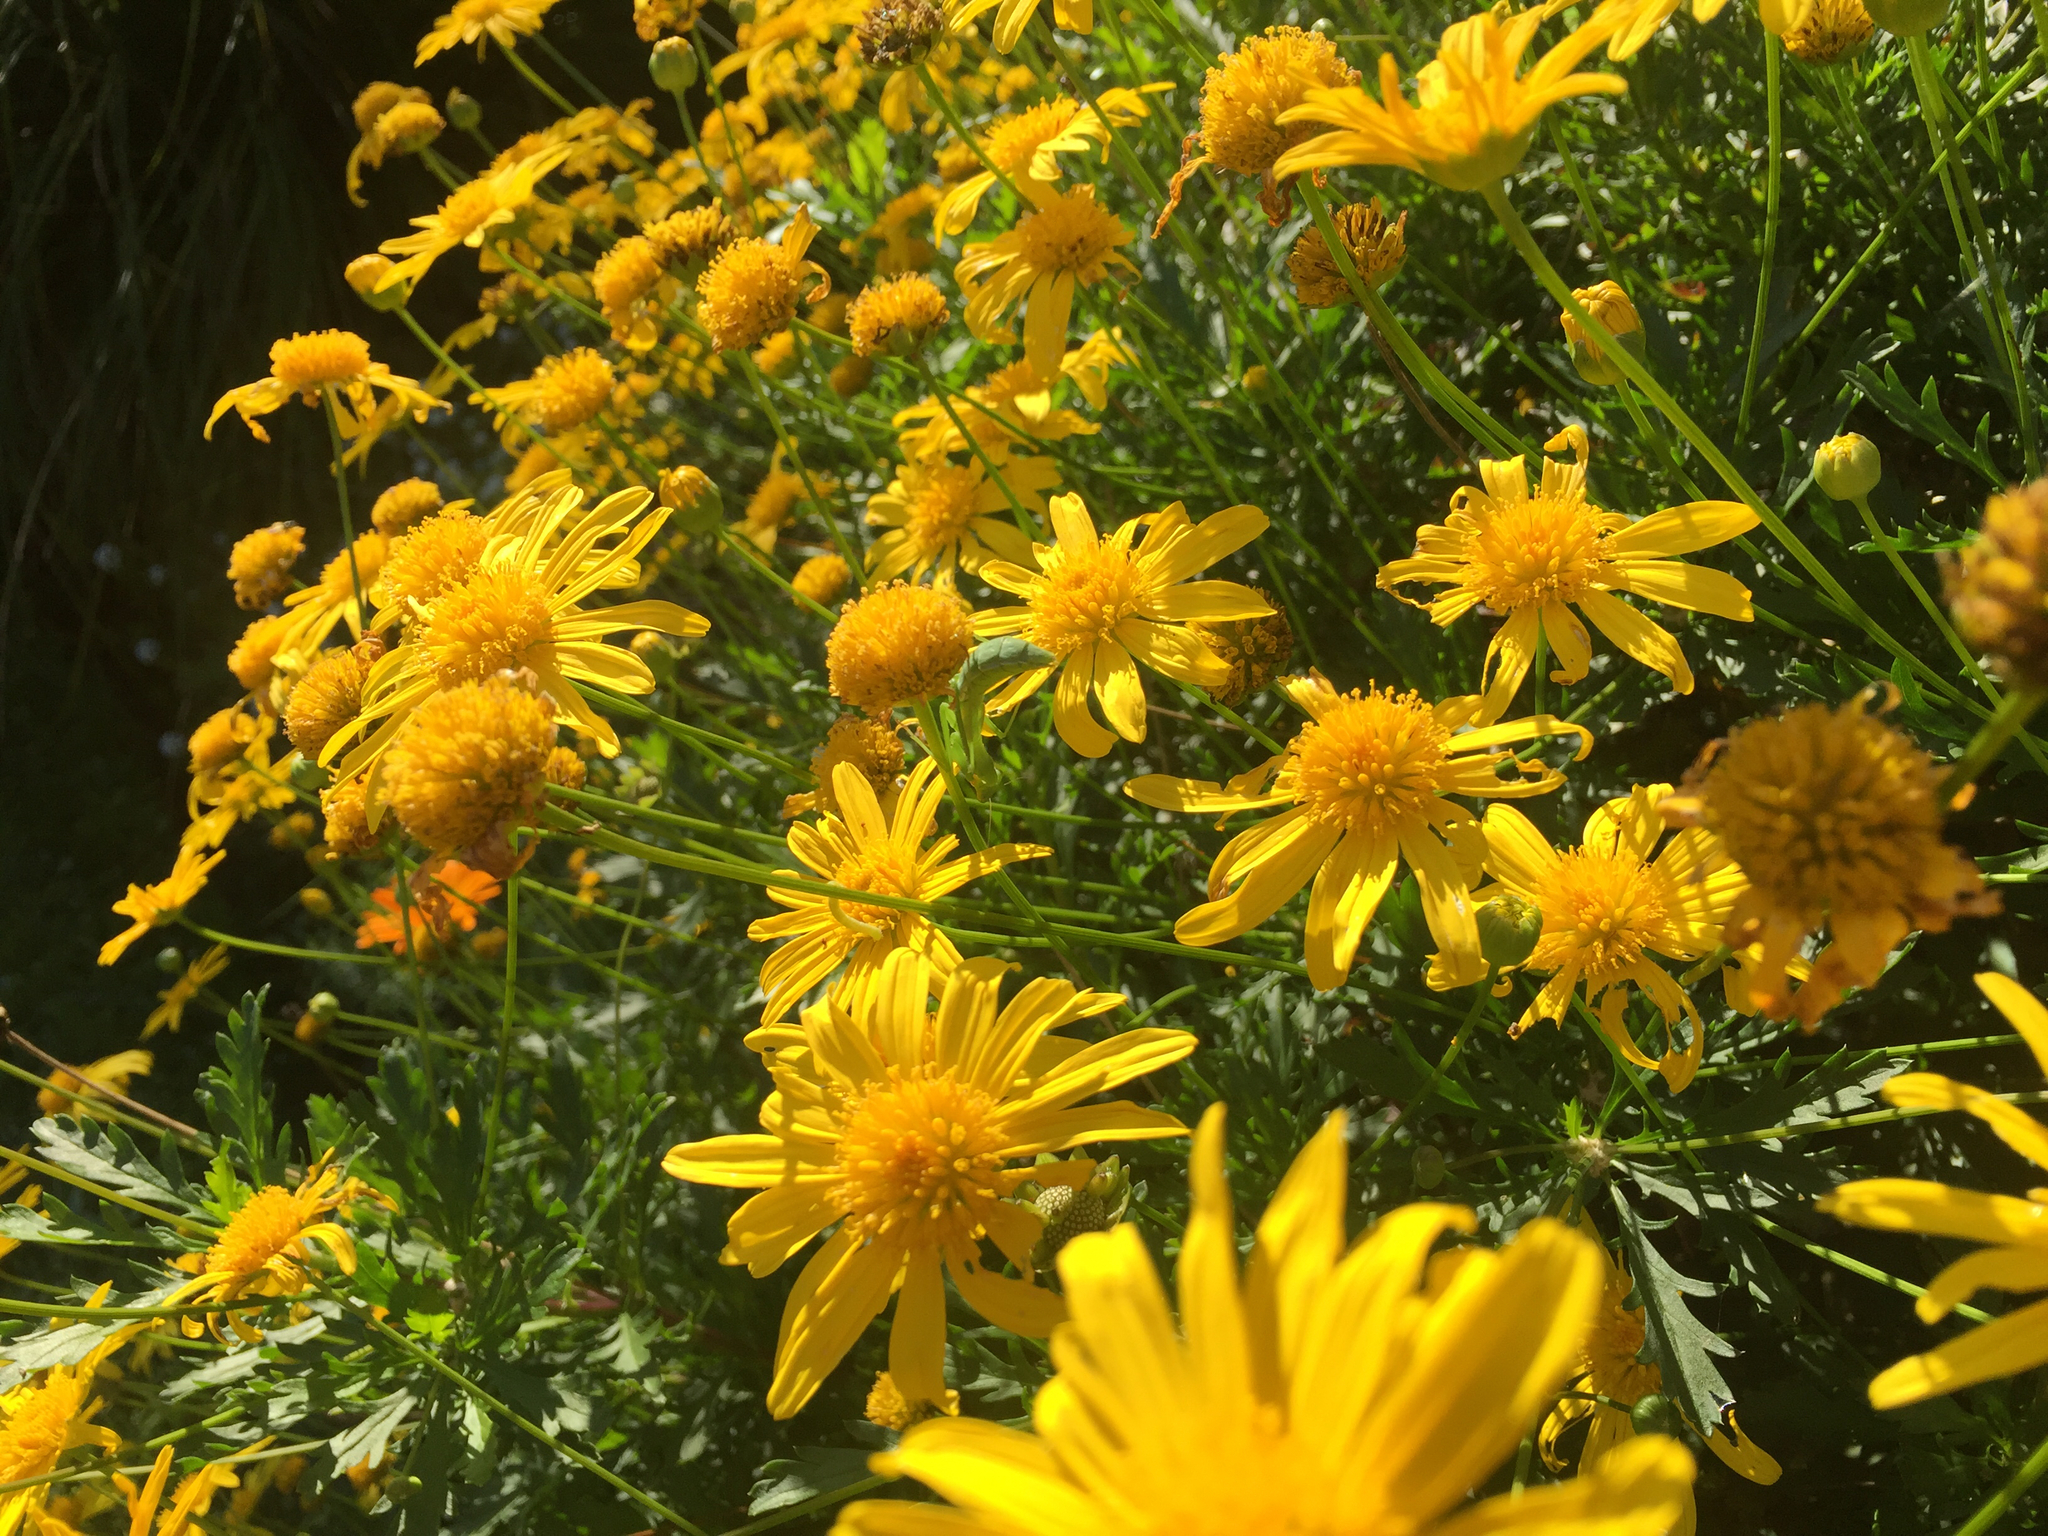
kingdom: Animalia
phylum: Arthropoda
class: Insecta
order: Mantodea
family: Miomantidae
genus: Miomantis
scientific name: Miomantis caffra
